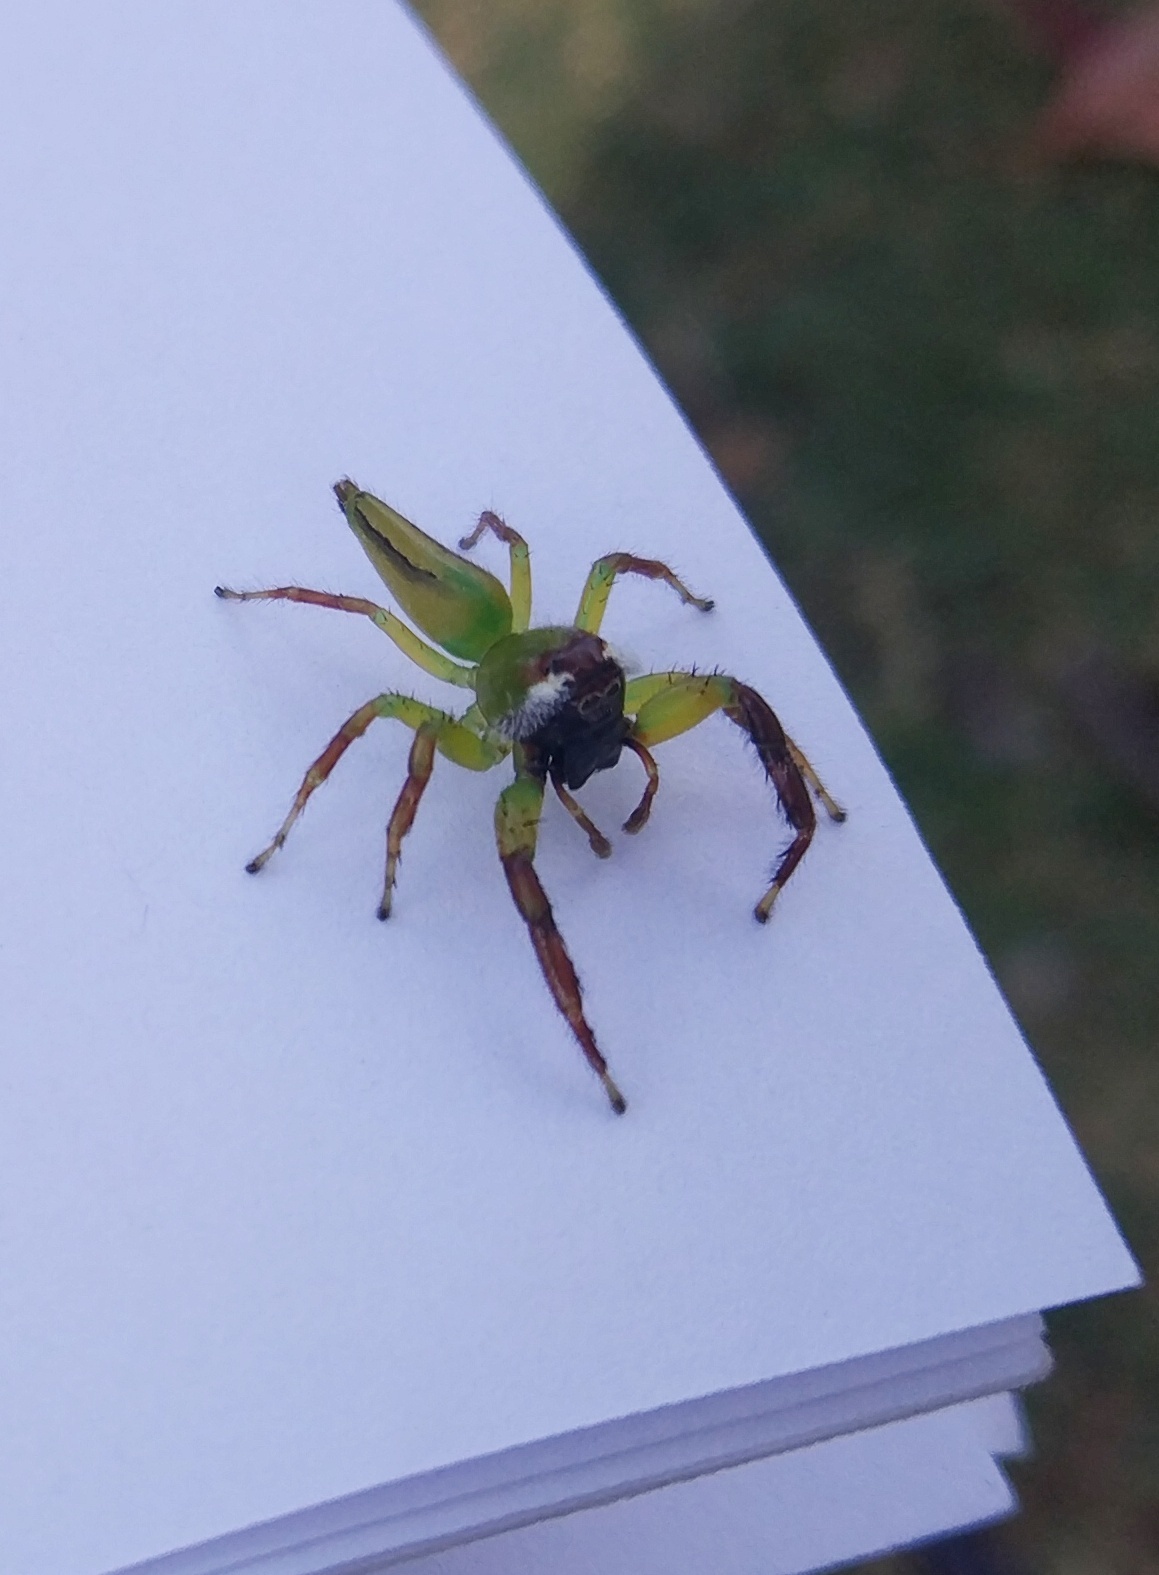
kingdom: Animalia
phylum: Arthropoda
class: Arachnida
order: Araneae
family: Salticidae
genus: Mopsus
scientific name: Mopsus mormon
